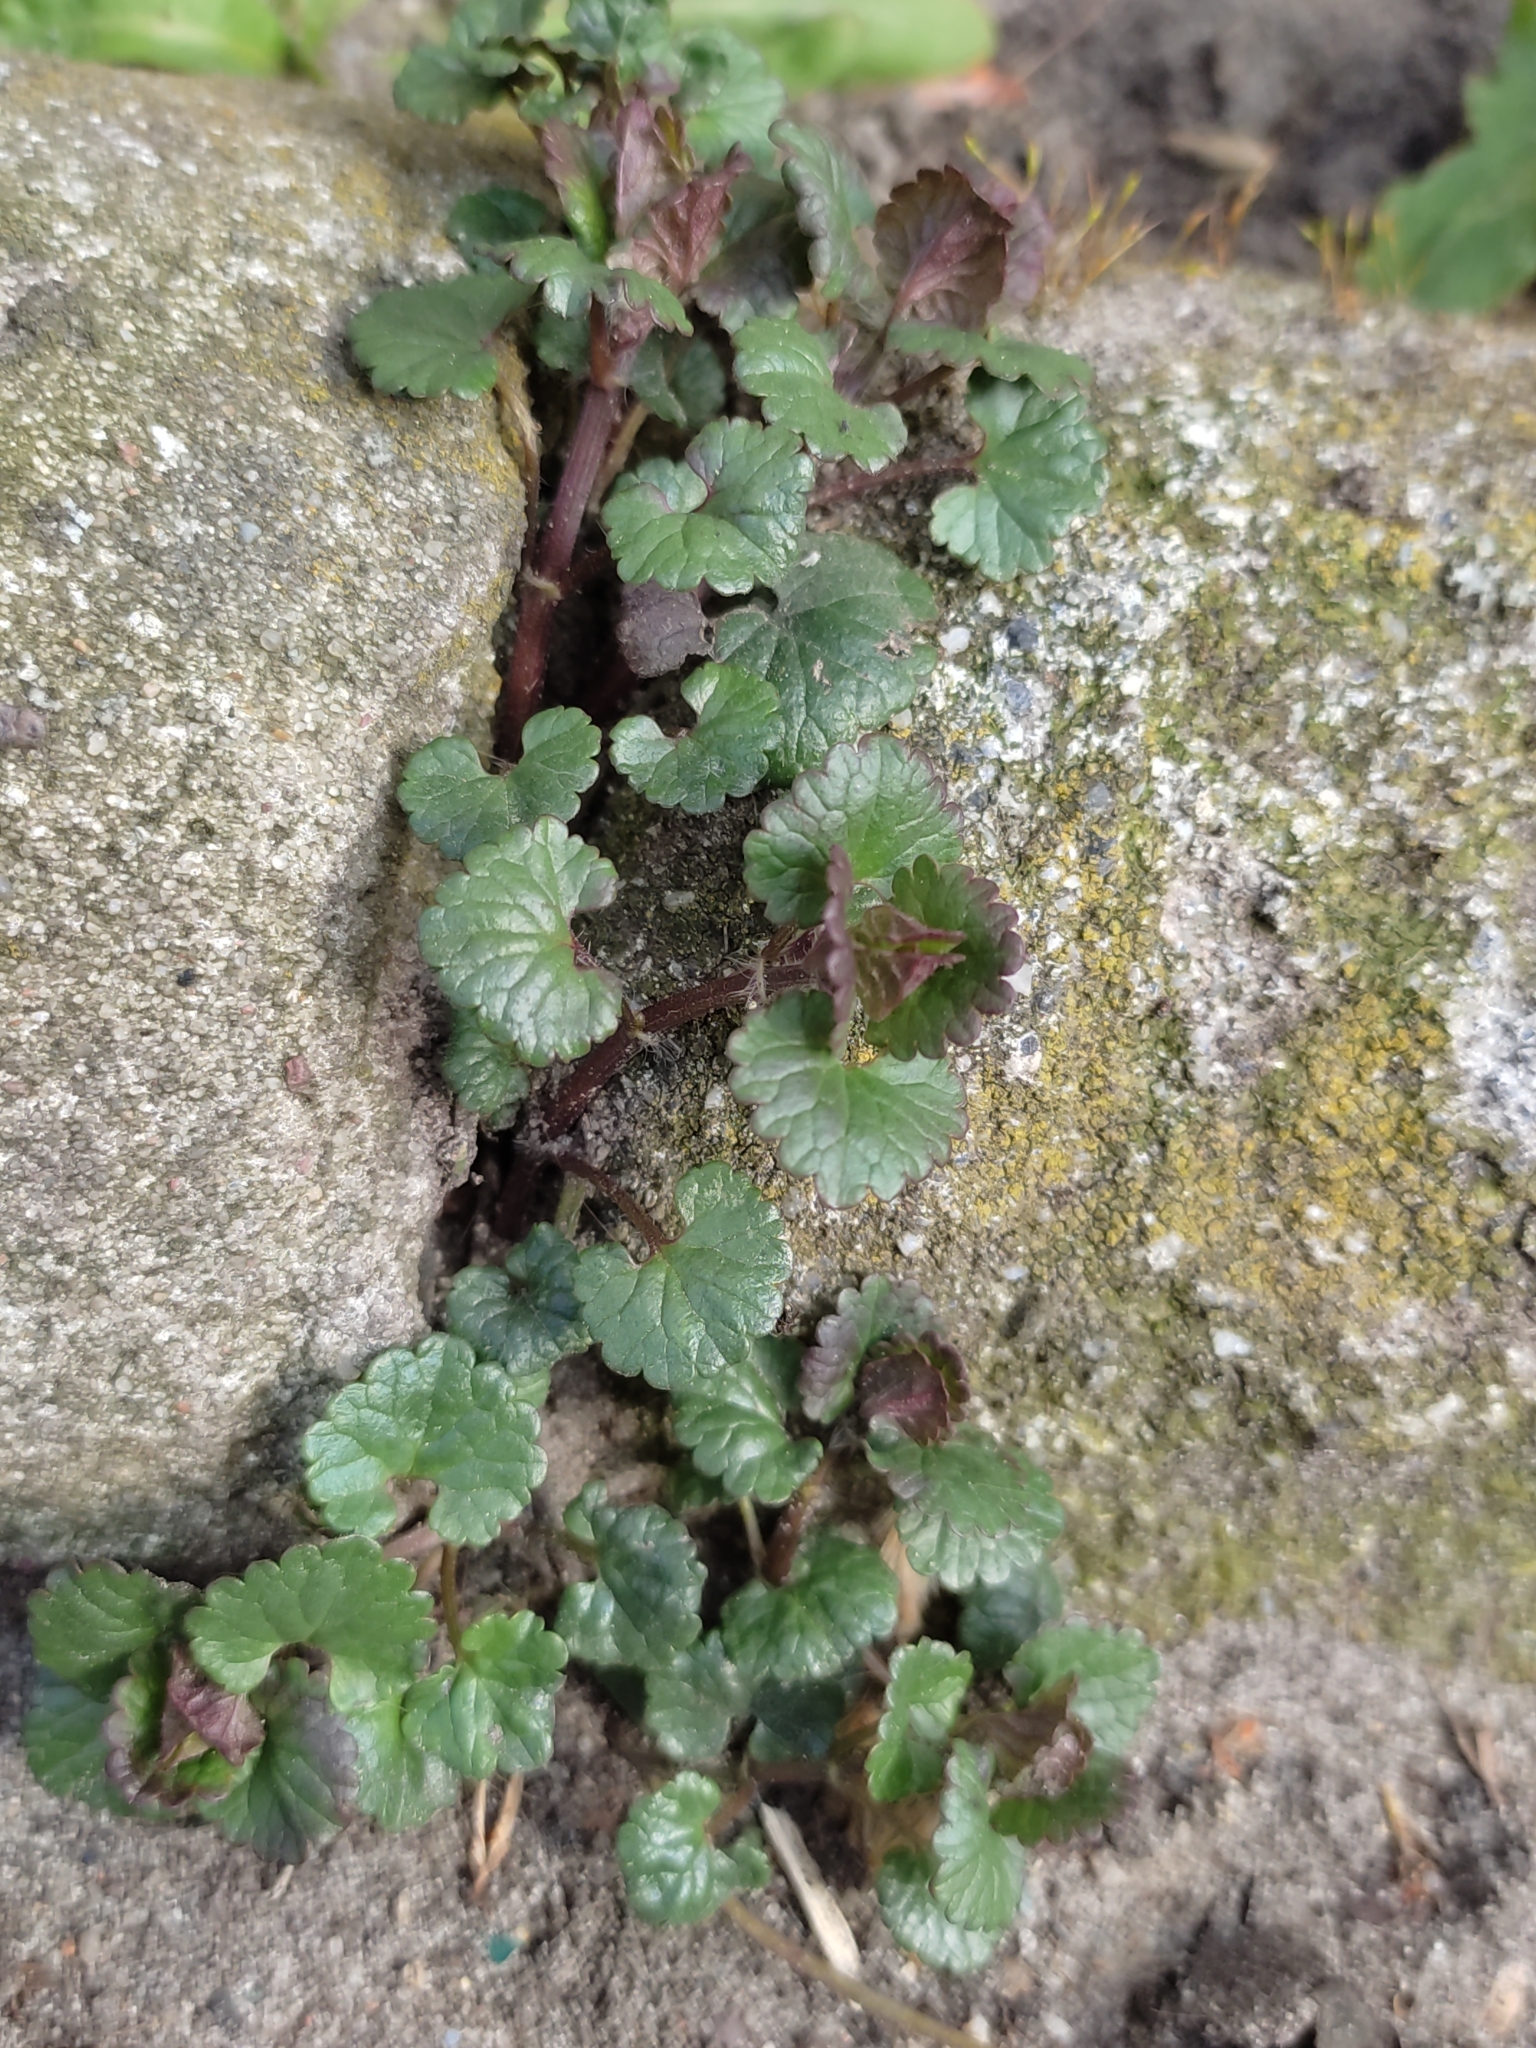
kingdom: Plantae
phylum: Tracheophyta
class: Magnoliopsida
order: Lamiales
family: Lamiaceae
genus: Glechoma
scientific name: Glechoma hederacea
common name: Ground ivy
